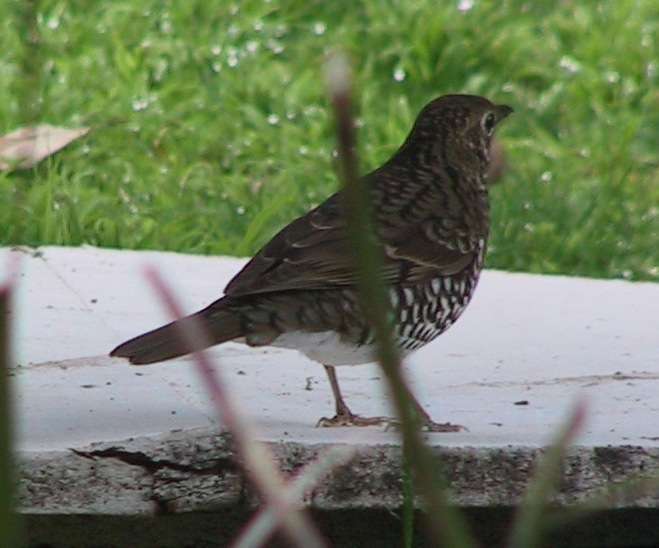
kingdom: Animalia
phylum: Chordata
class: Aves
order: Passeriformes
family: Turdidae
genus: Zoothera
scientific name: Zoothera lunulata
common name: Bassian thrush
